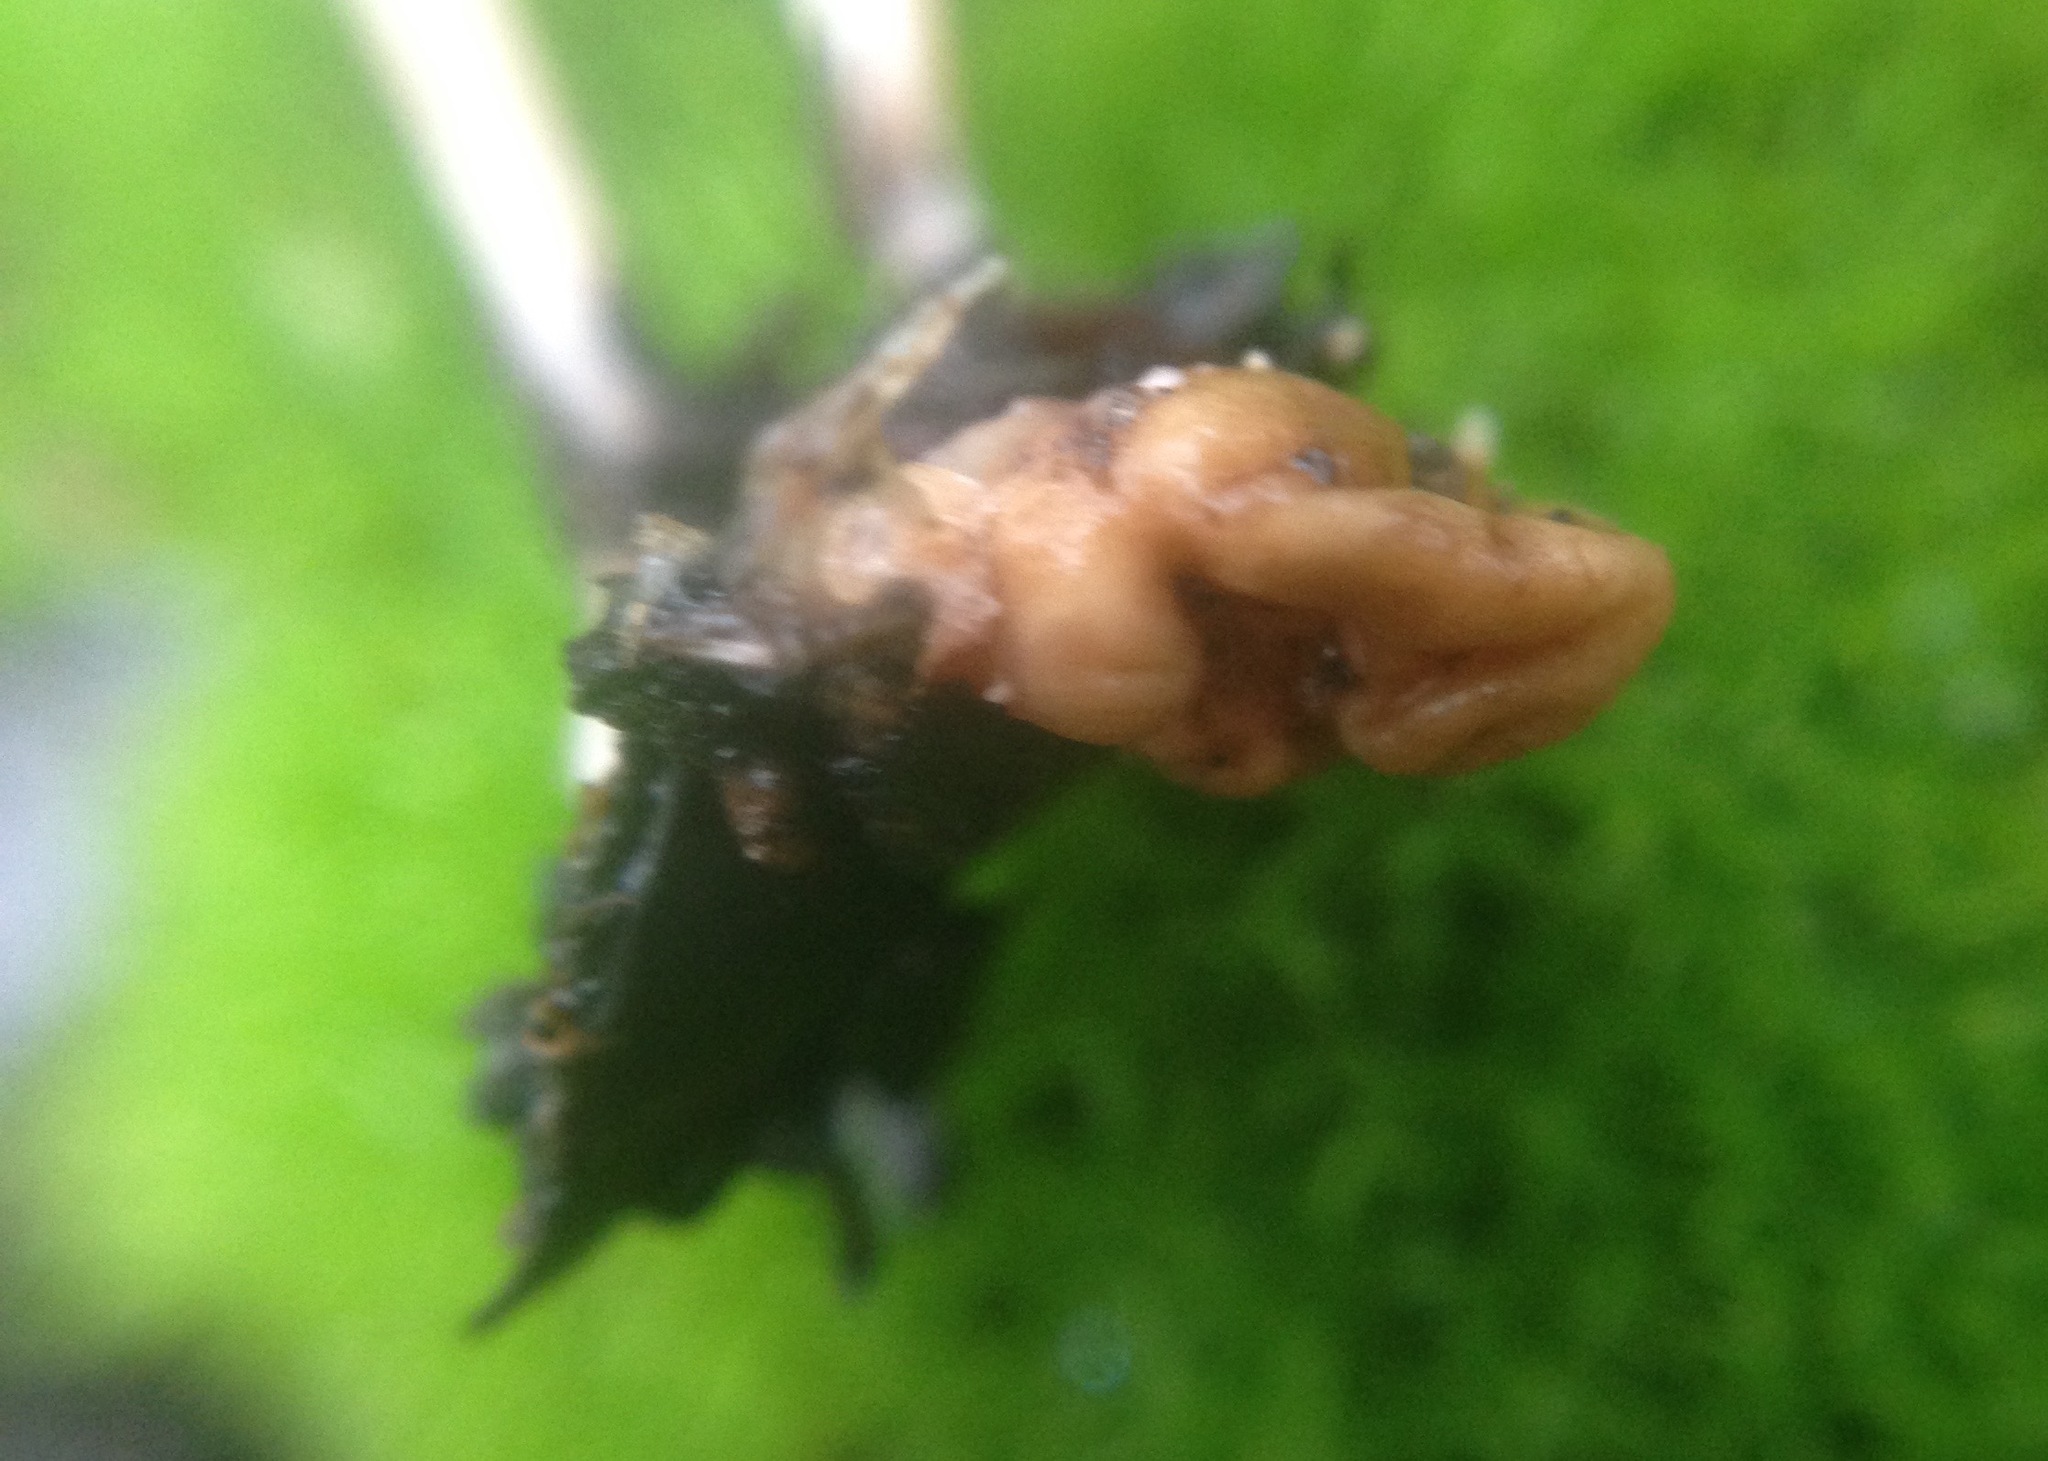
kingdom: Fungi
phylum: Basidiomycota
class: Agaricomycetes
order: Agaricales
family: Tricholomataceae
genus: Collybia
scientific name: Collybia cookei
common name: Splitpea shanklet
